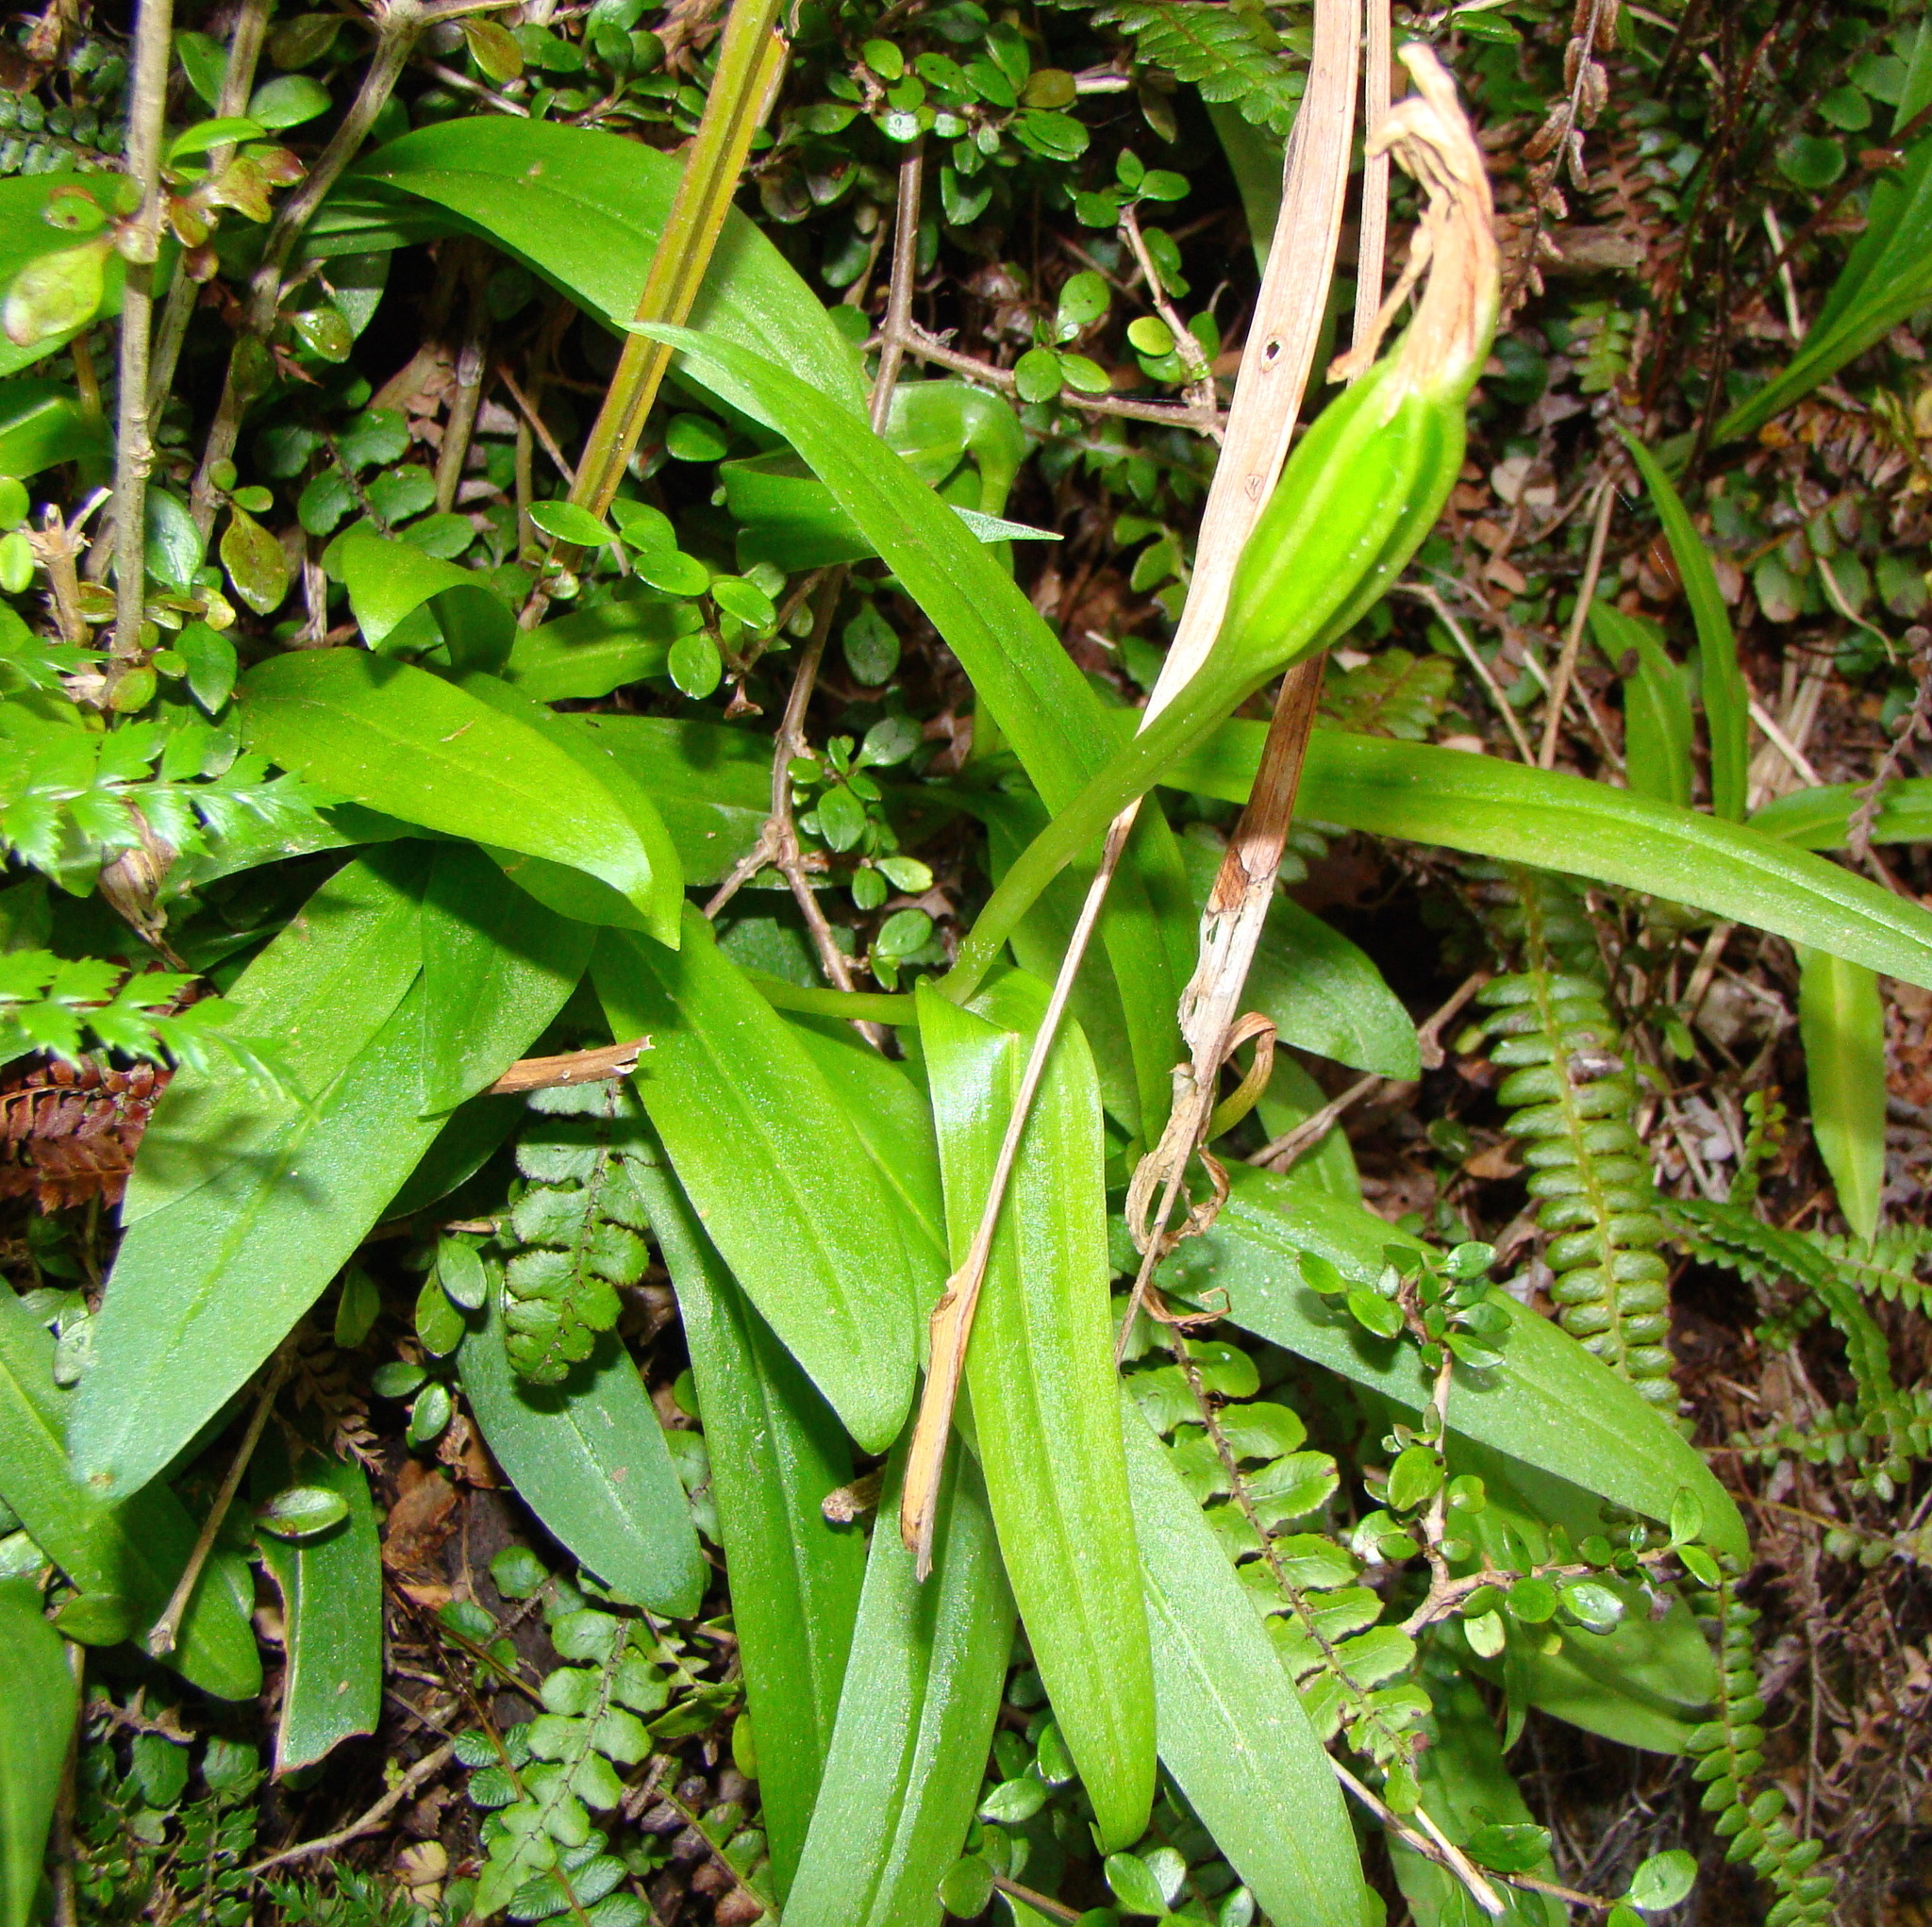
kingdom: Plantae
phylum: Tracheophyta
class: Liliopsida
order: Asparagales
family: Orchidaceae
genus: Pterostylis
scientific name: Pterostylis australis
